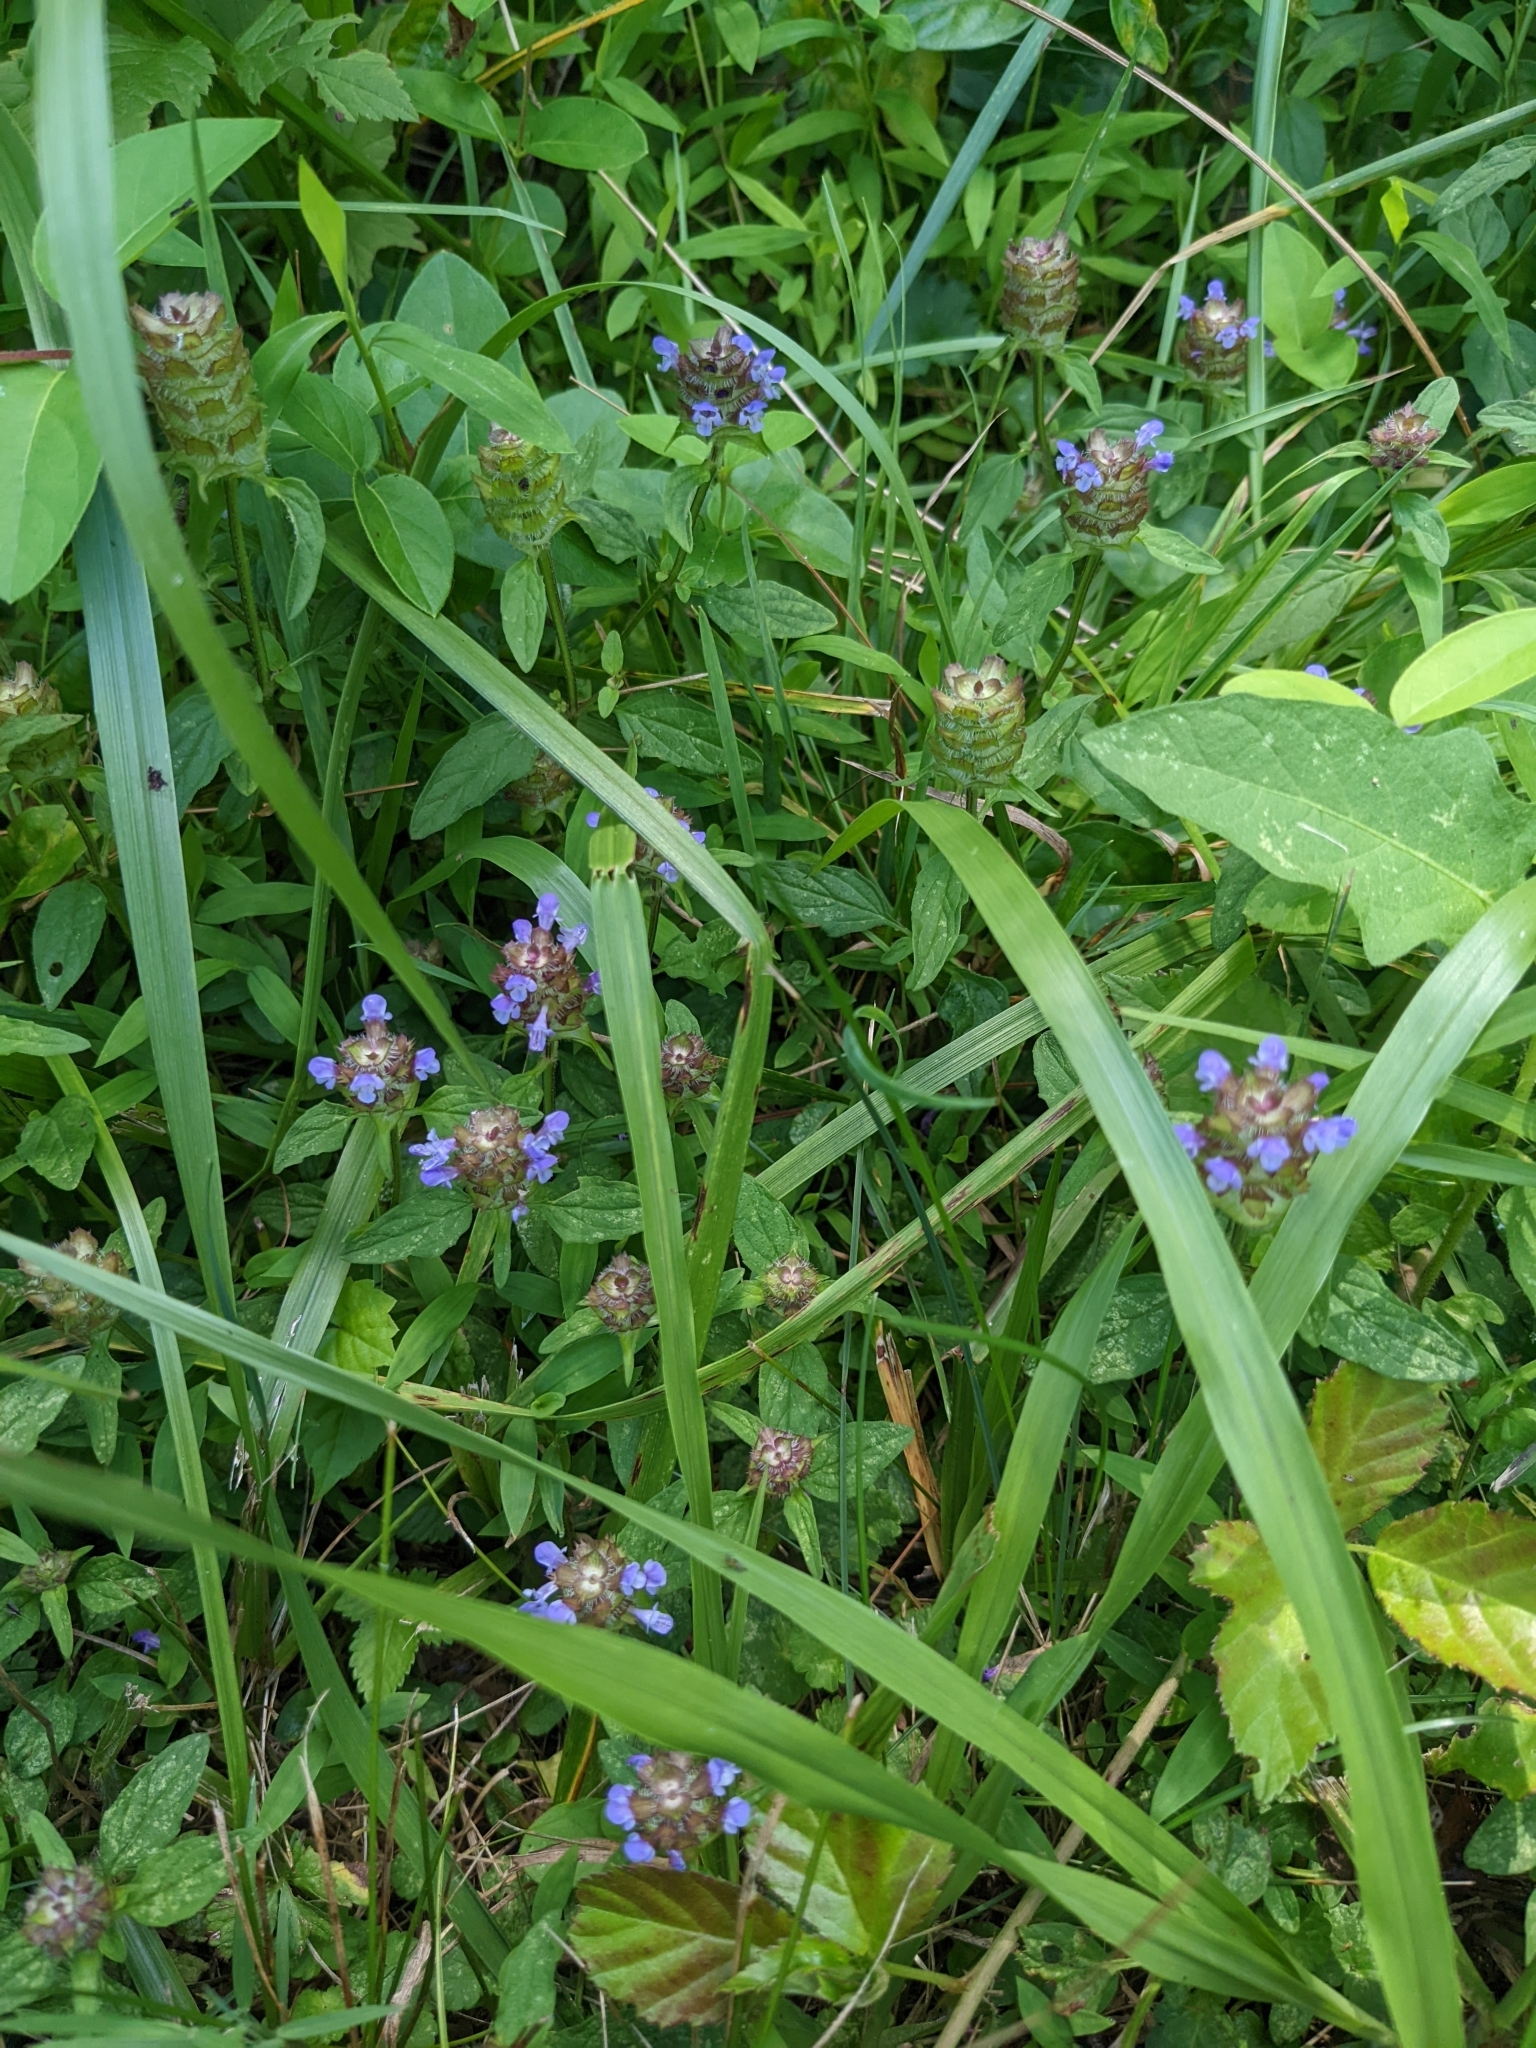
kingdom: Plantae
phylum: Tracheophyta
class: Magnoliopsida
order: Lamiales
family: Lamiaceae
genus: Prunella
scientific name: Prunella vulgaris
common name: Heal-all
